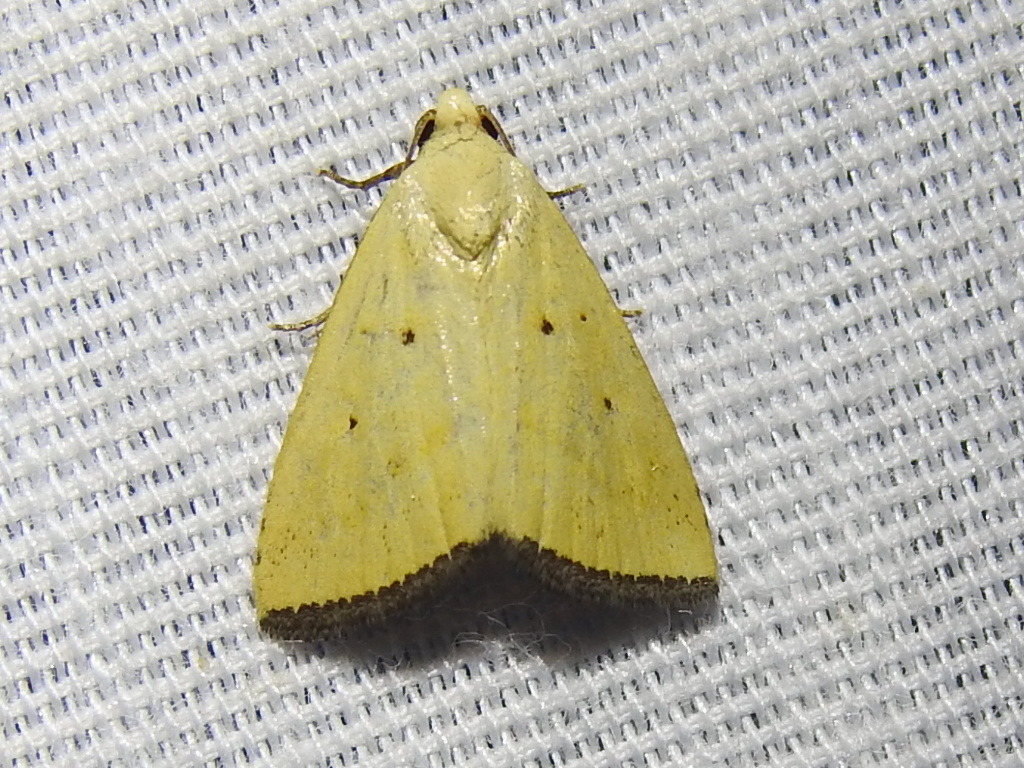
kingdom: Animalia
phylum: Arthropoda
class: Insecta
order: Lepidoptera
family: Noctuidae
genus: Marimatha
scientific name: Marimatha nigrofimbria
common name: Black-bordered lemon moth
